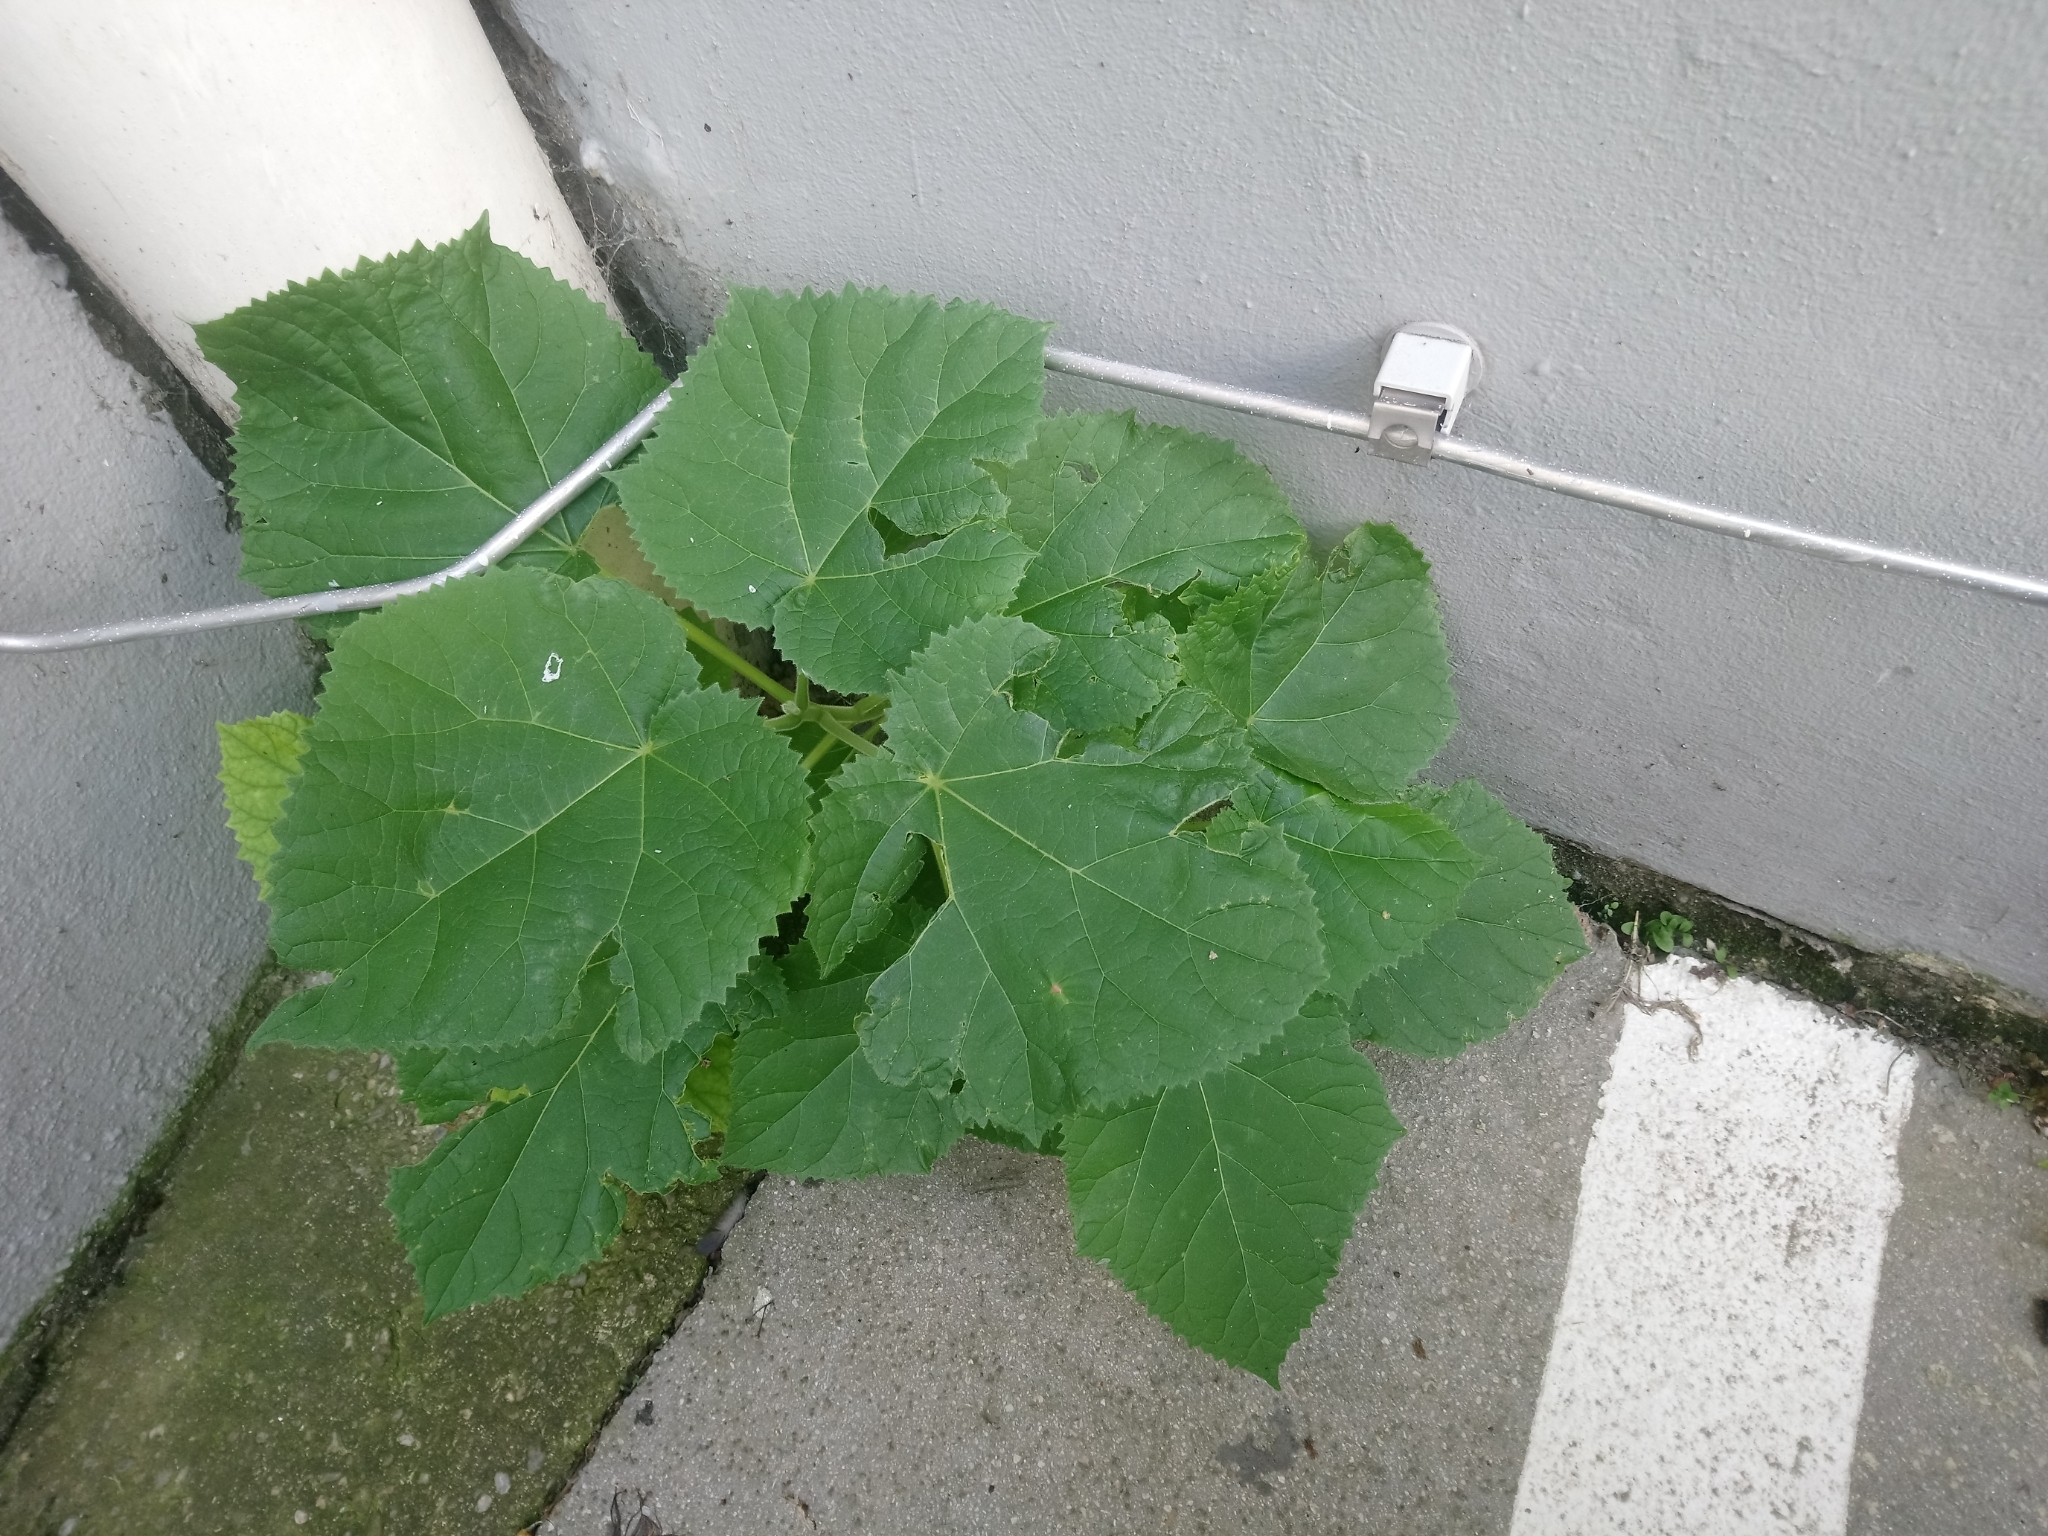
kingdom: Plantae
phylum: Tracheophyta
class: Magnoliopsida
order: Lamiales
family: Paulowniaceae
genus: Paulownia
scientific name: Paulownia tomentosa
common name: Foxglove-tree
